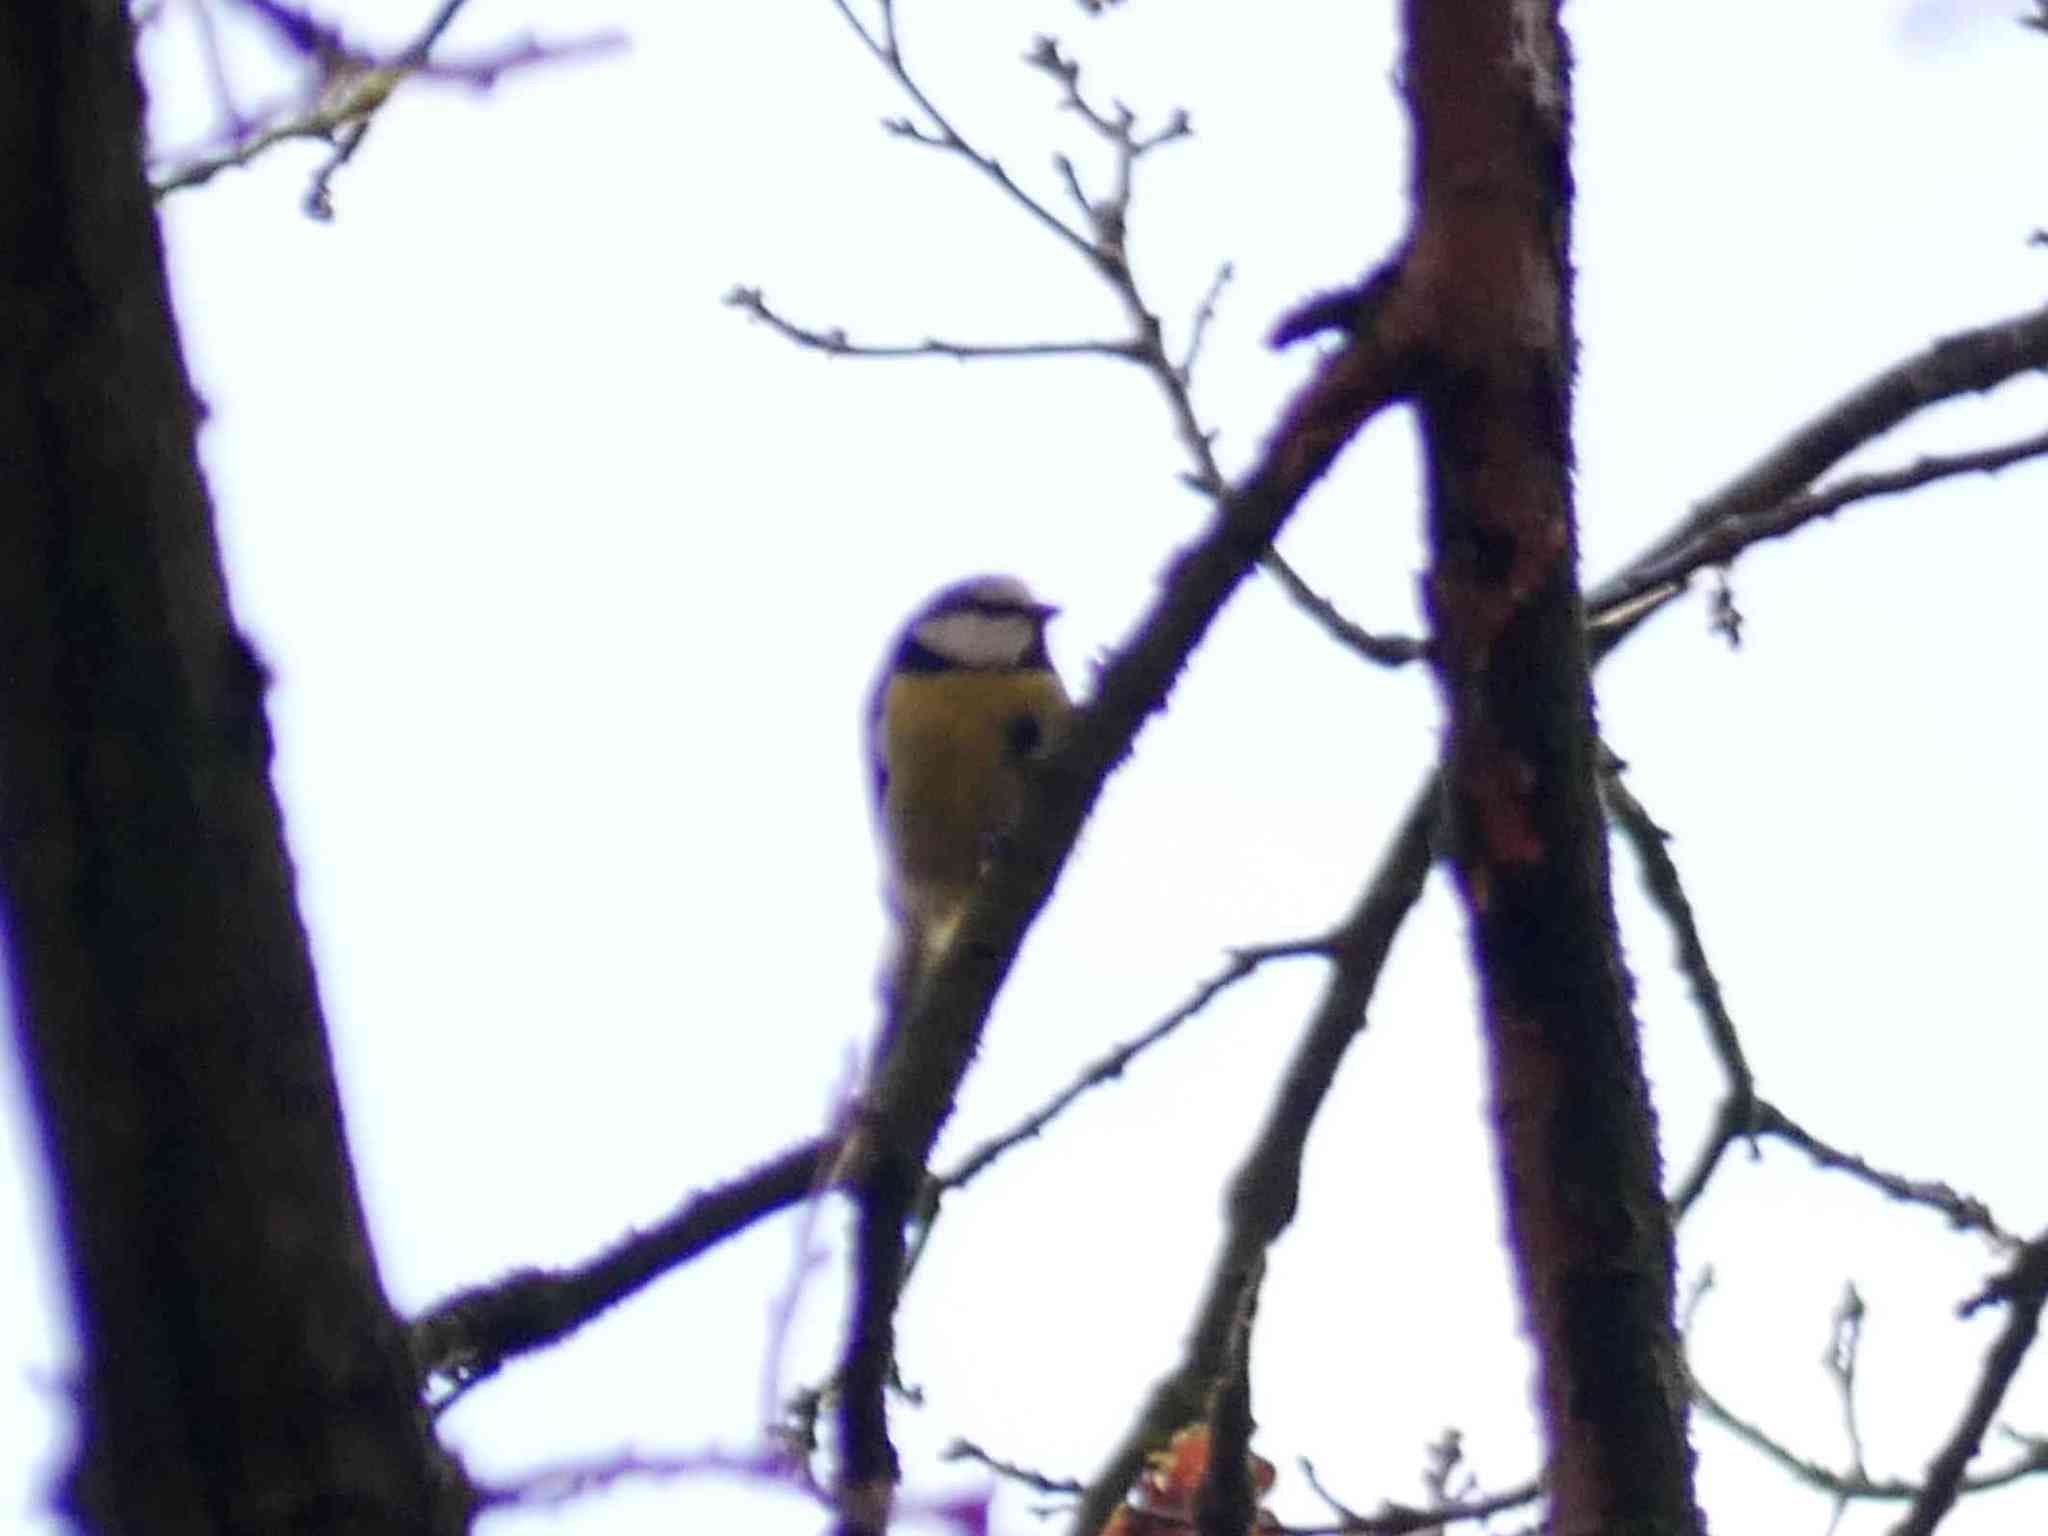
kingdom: Animalia
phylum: Chordata
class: Aves
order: Passeriformes
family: Paridae
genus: Cyanistes
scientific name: Cyanistes caeruleus
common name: Eurasian blue tit
